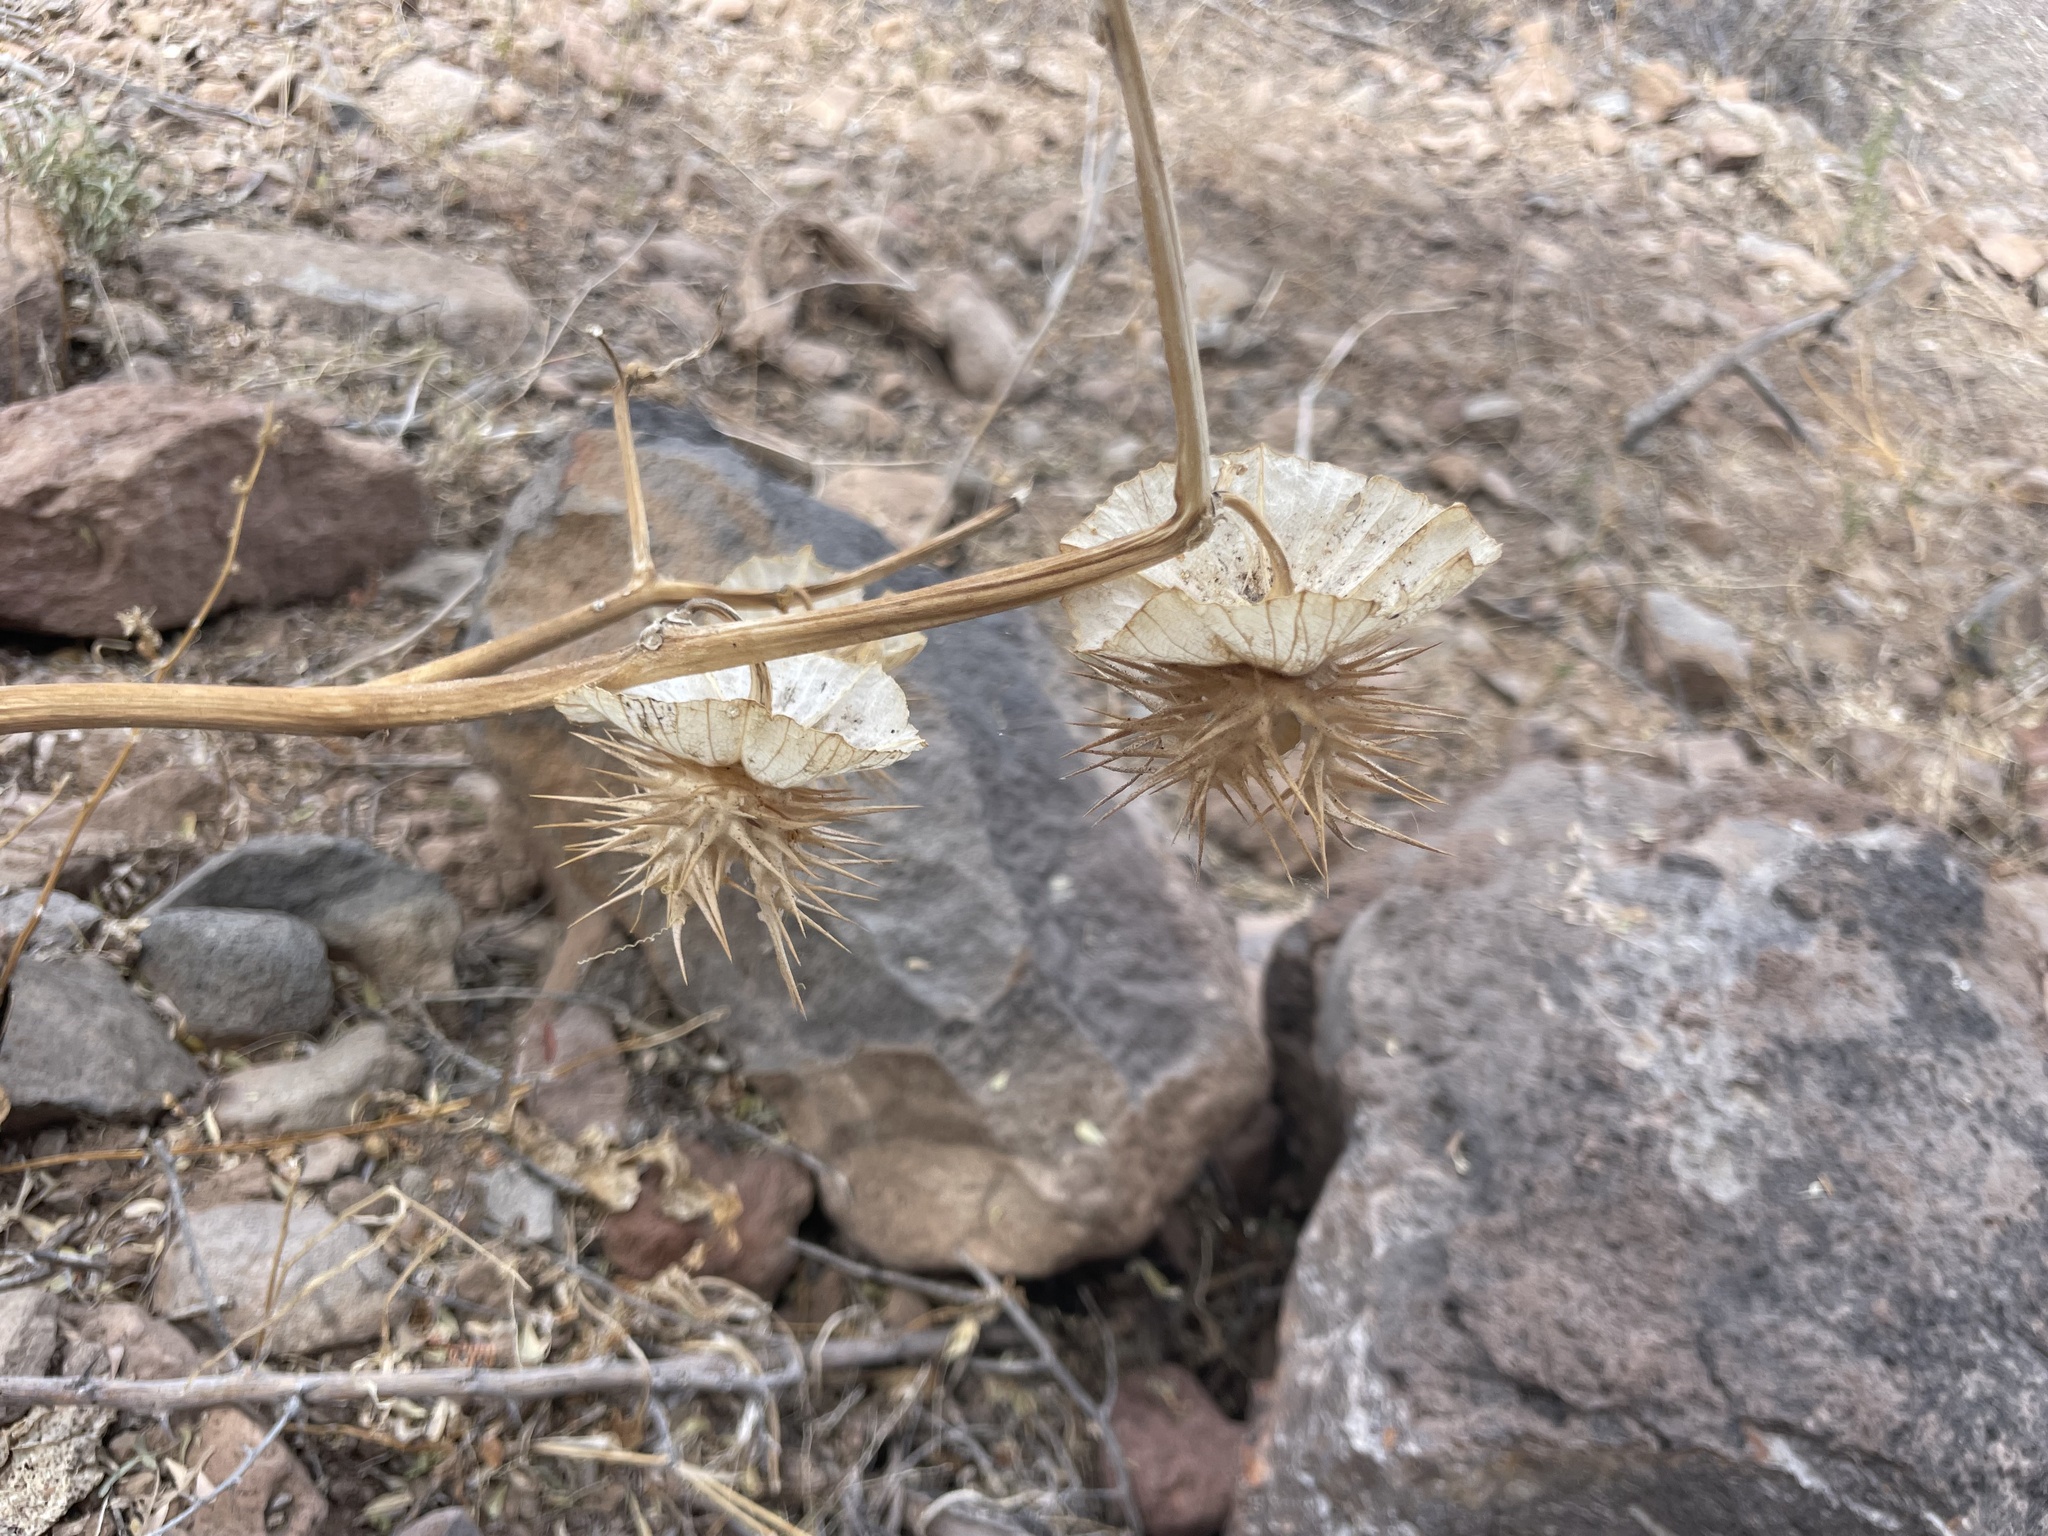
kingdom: Plantae
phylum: Tracheophyta
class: Magnoliopsida
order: Solanales
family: Solanaceae
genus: Datura
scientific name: Datura discolor
